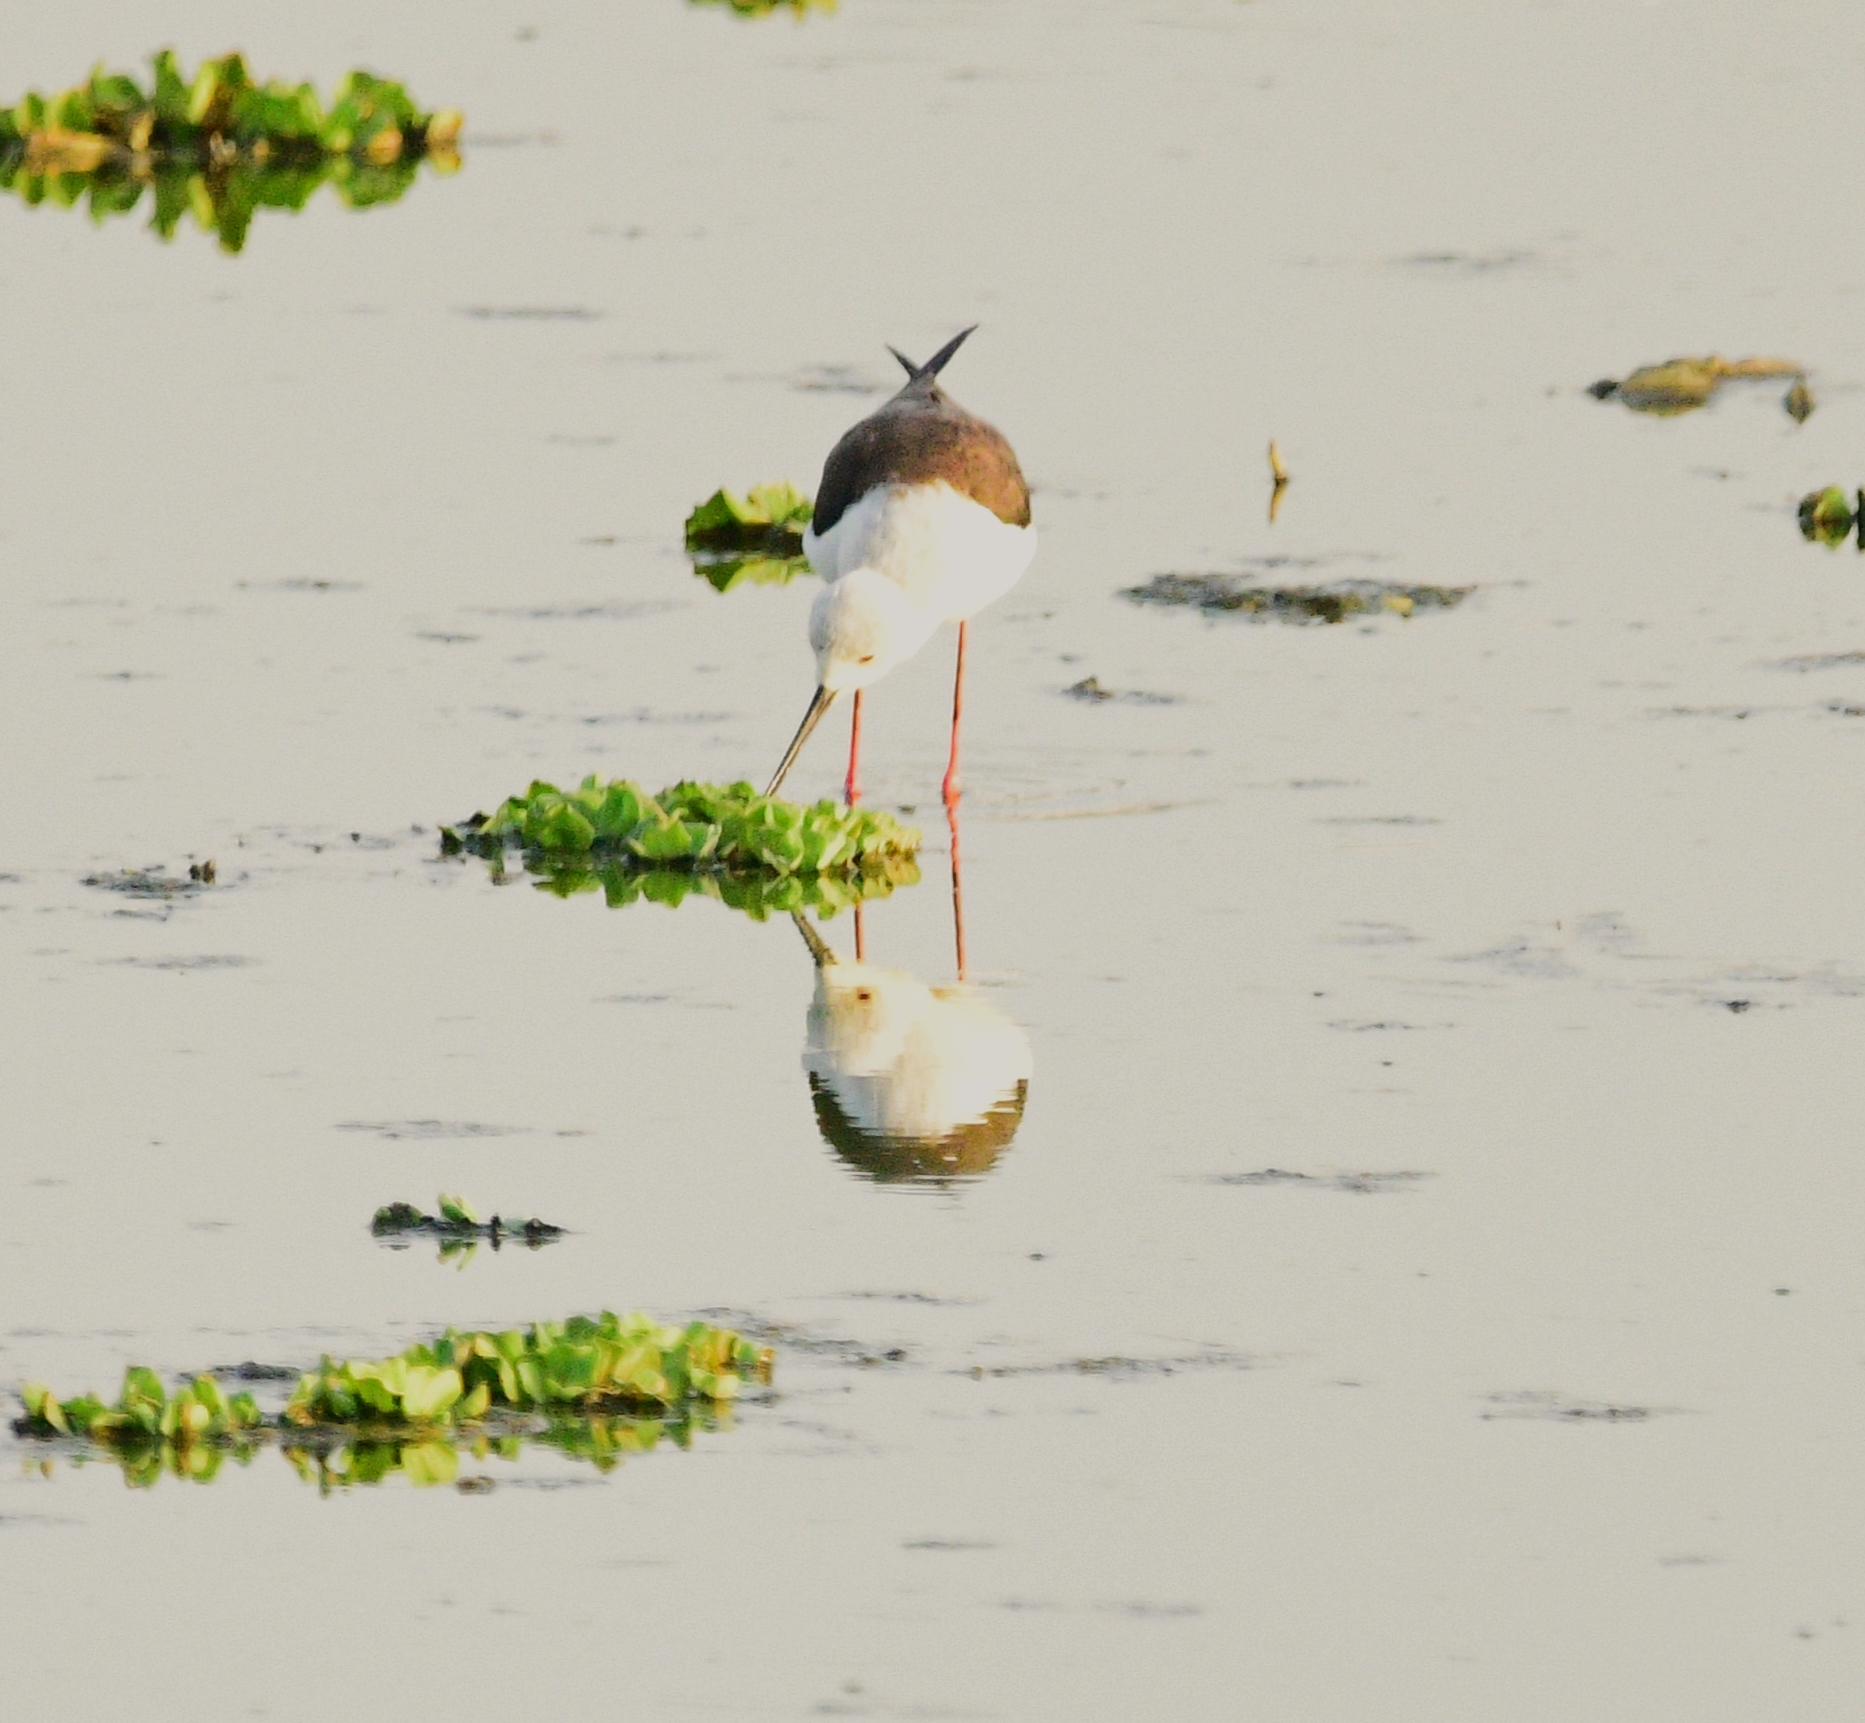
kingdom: Animalia
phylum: Chordata
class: Aves
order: Charadriiformes
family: Recurvirostridae
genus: Himantopus
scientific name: Himantopus himantopus
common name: Black-winged stilt
